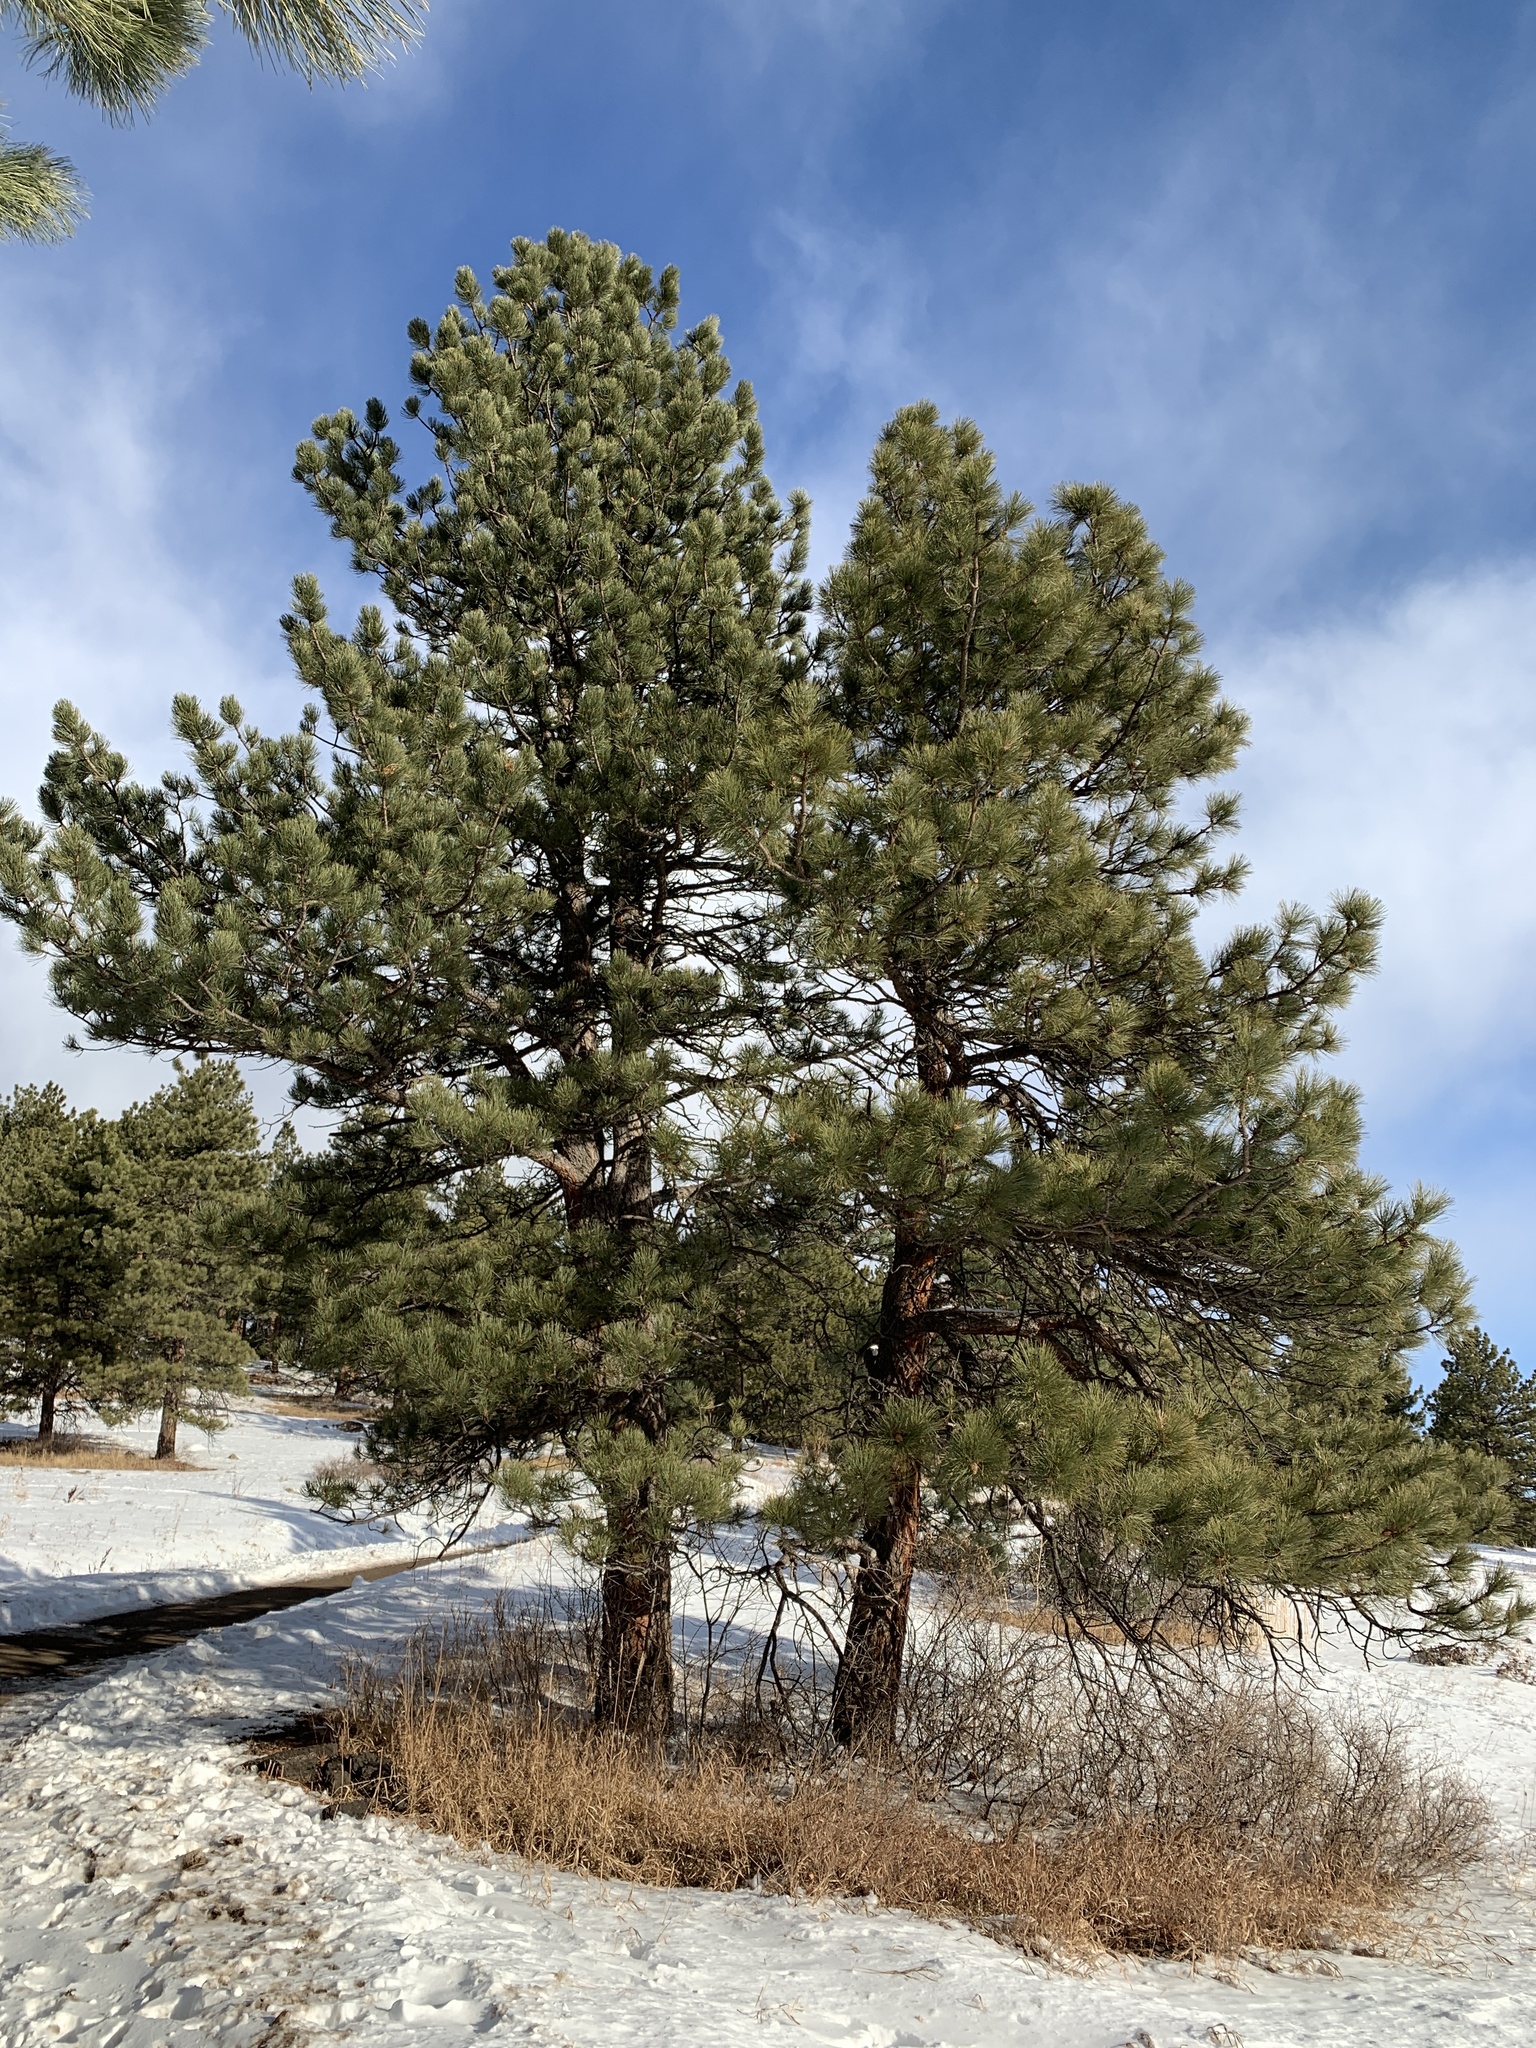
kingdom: Plantae
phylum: Tracheophyta
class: Pinopsida
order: Pinales
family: Pinaceae
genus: Pinus
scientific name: Pinus ponderosa
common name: Western yellow-pine
